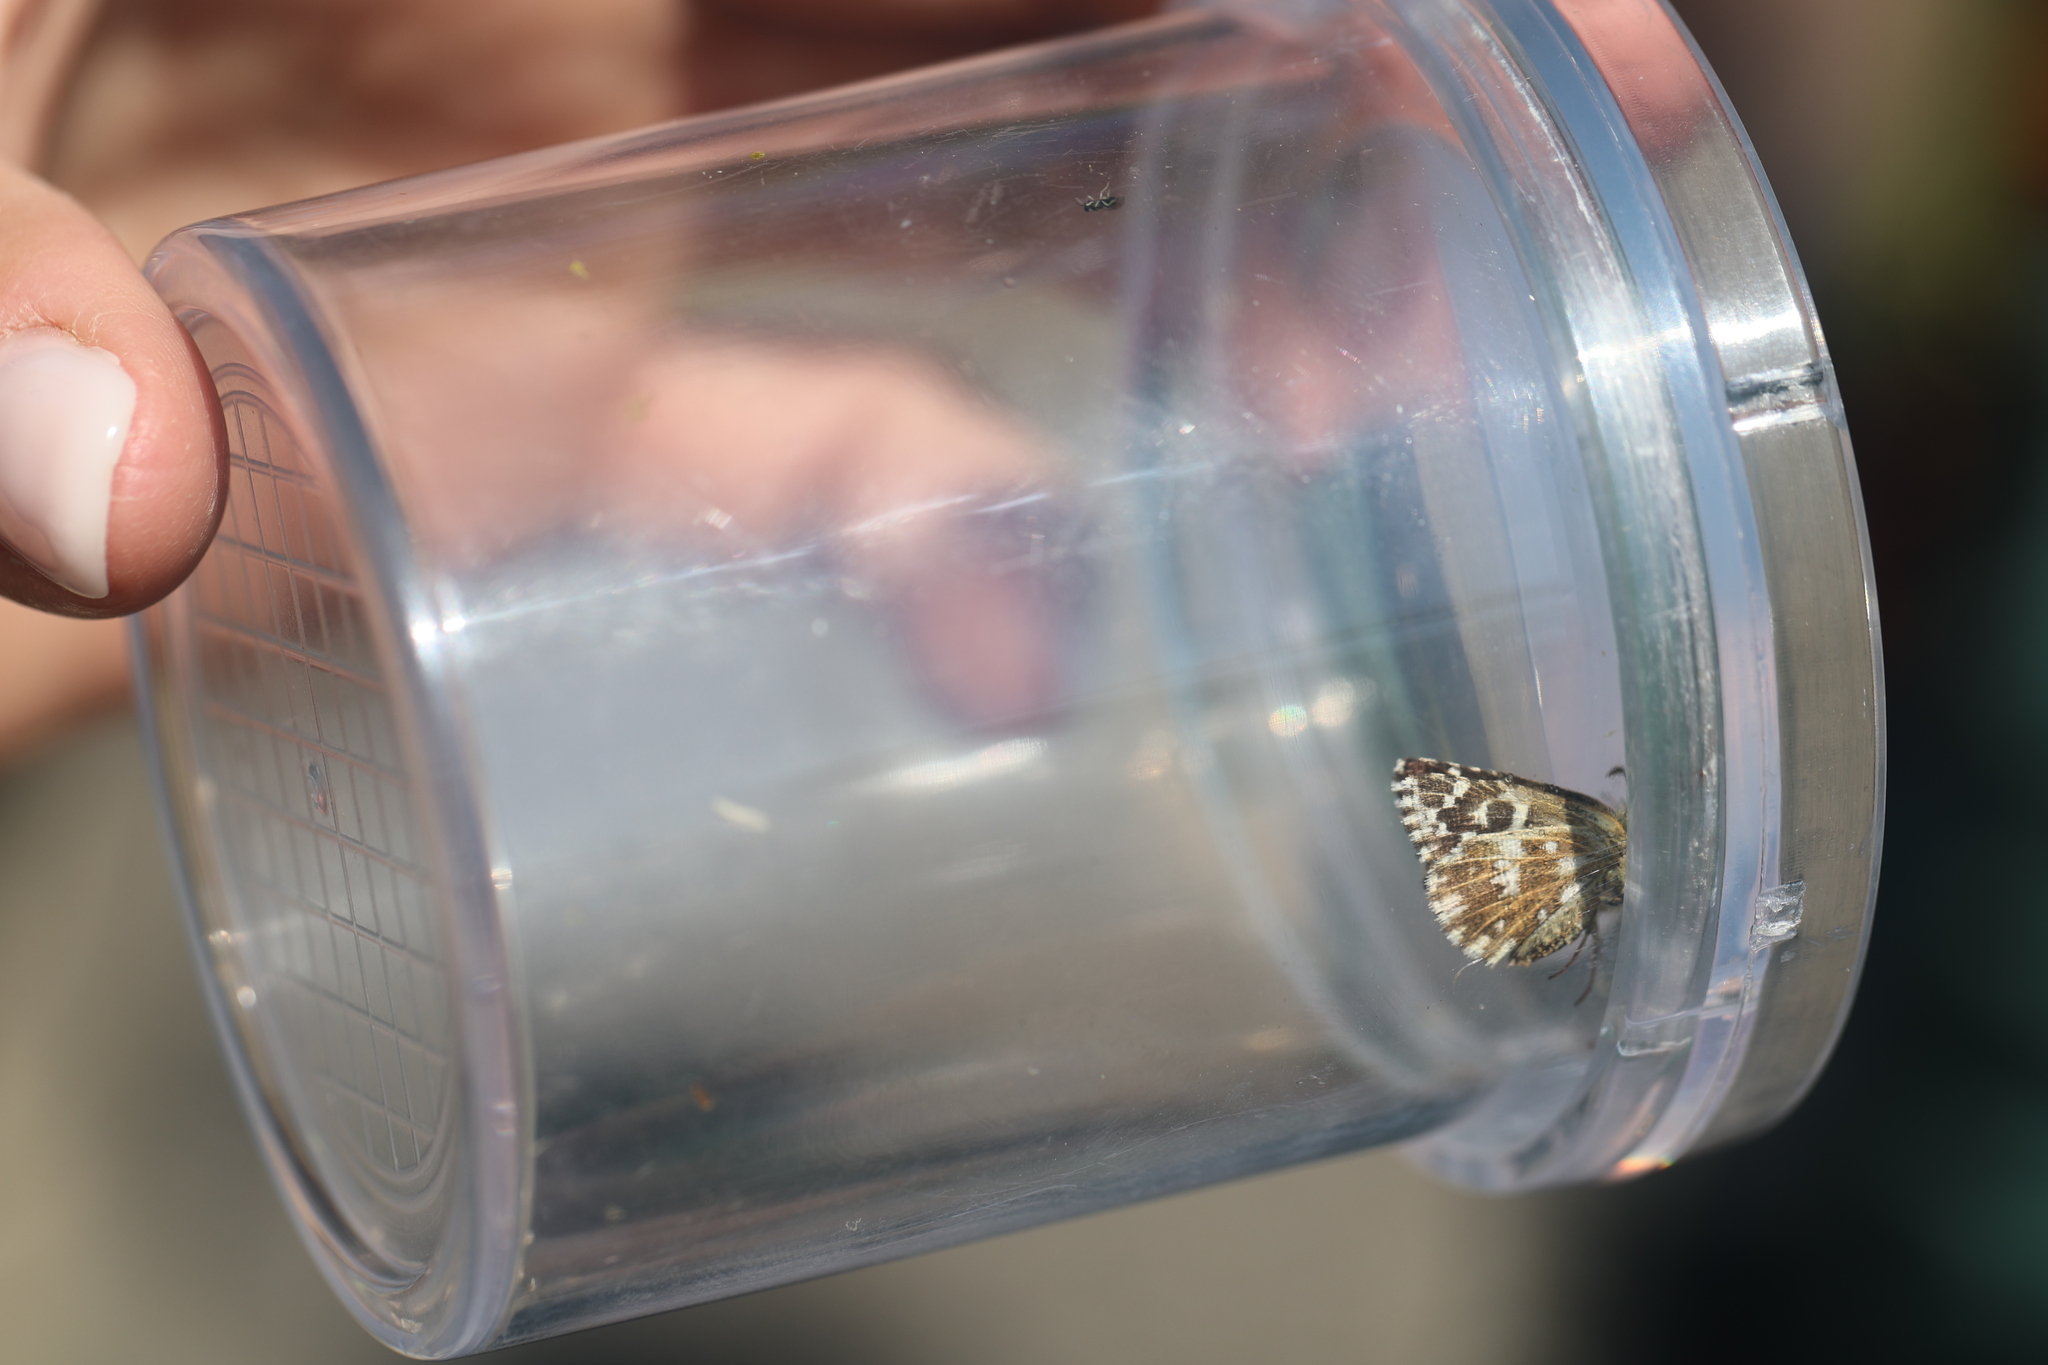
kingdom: Animalia
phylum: Arthropoda
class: Insecta
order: Lepidoptera
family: Hesperiidae
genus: Pyrgus
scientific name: Pyrgus malvae
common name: Grizzled skipper
